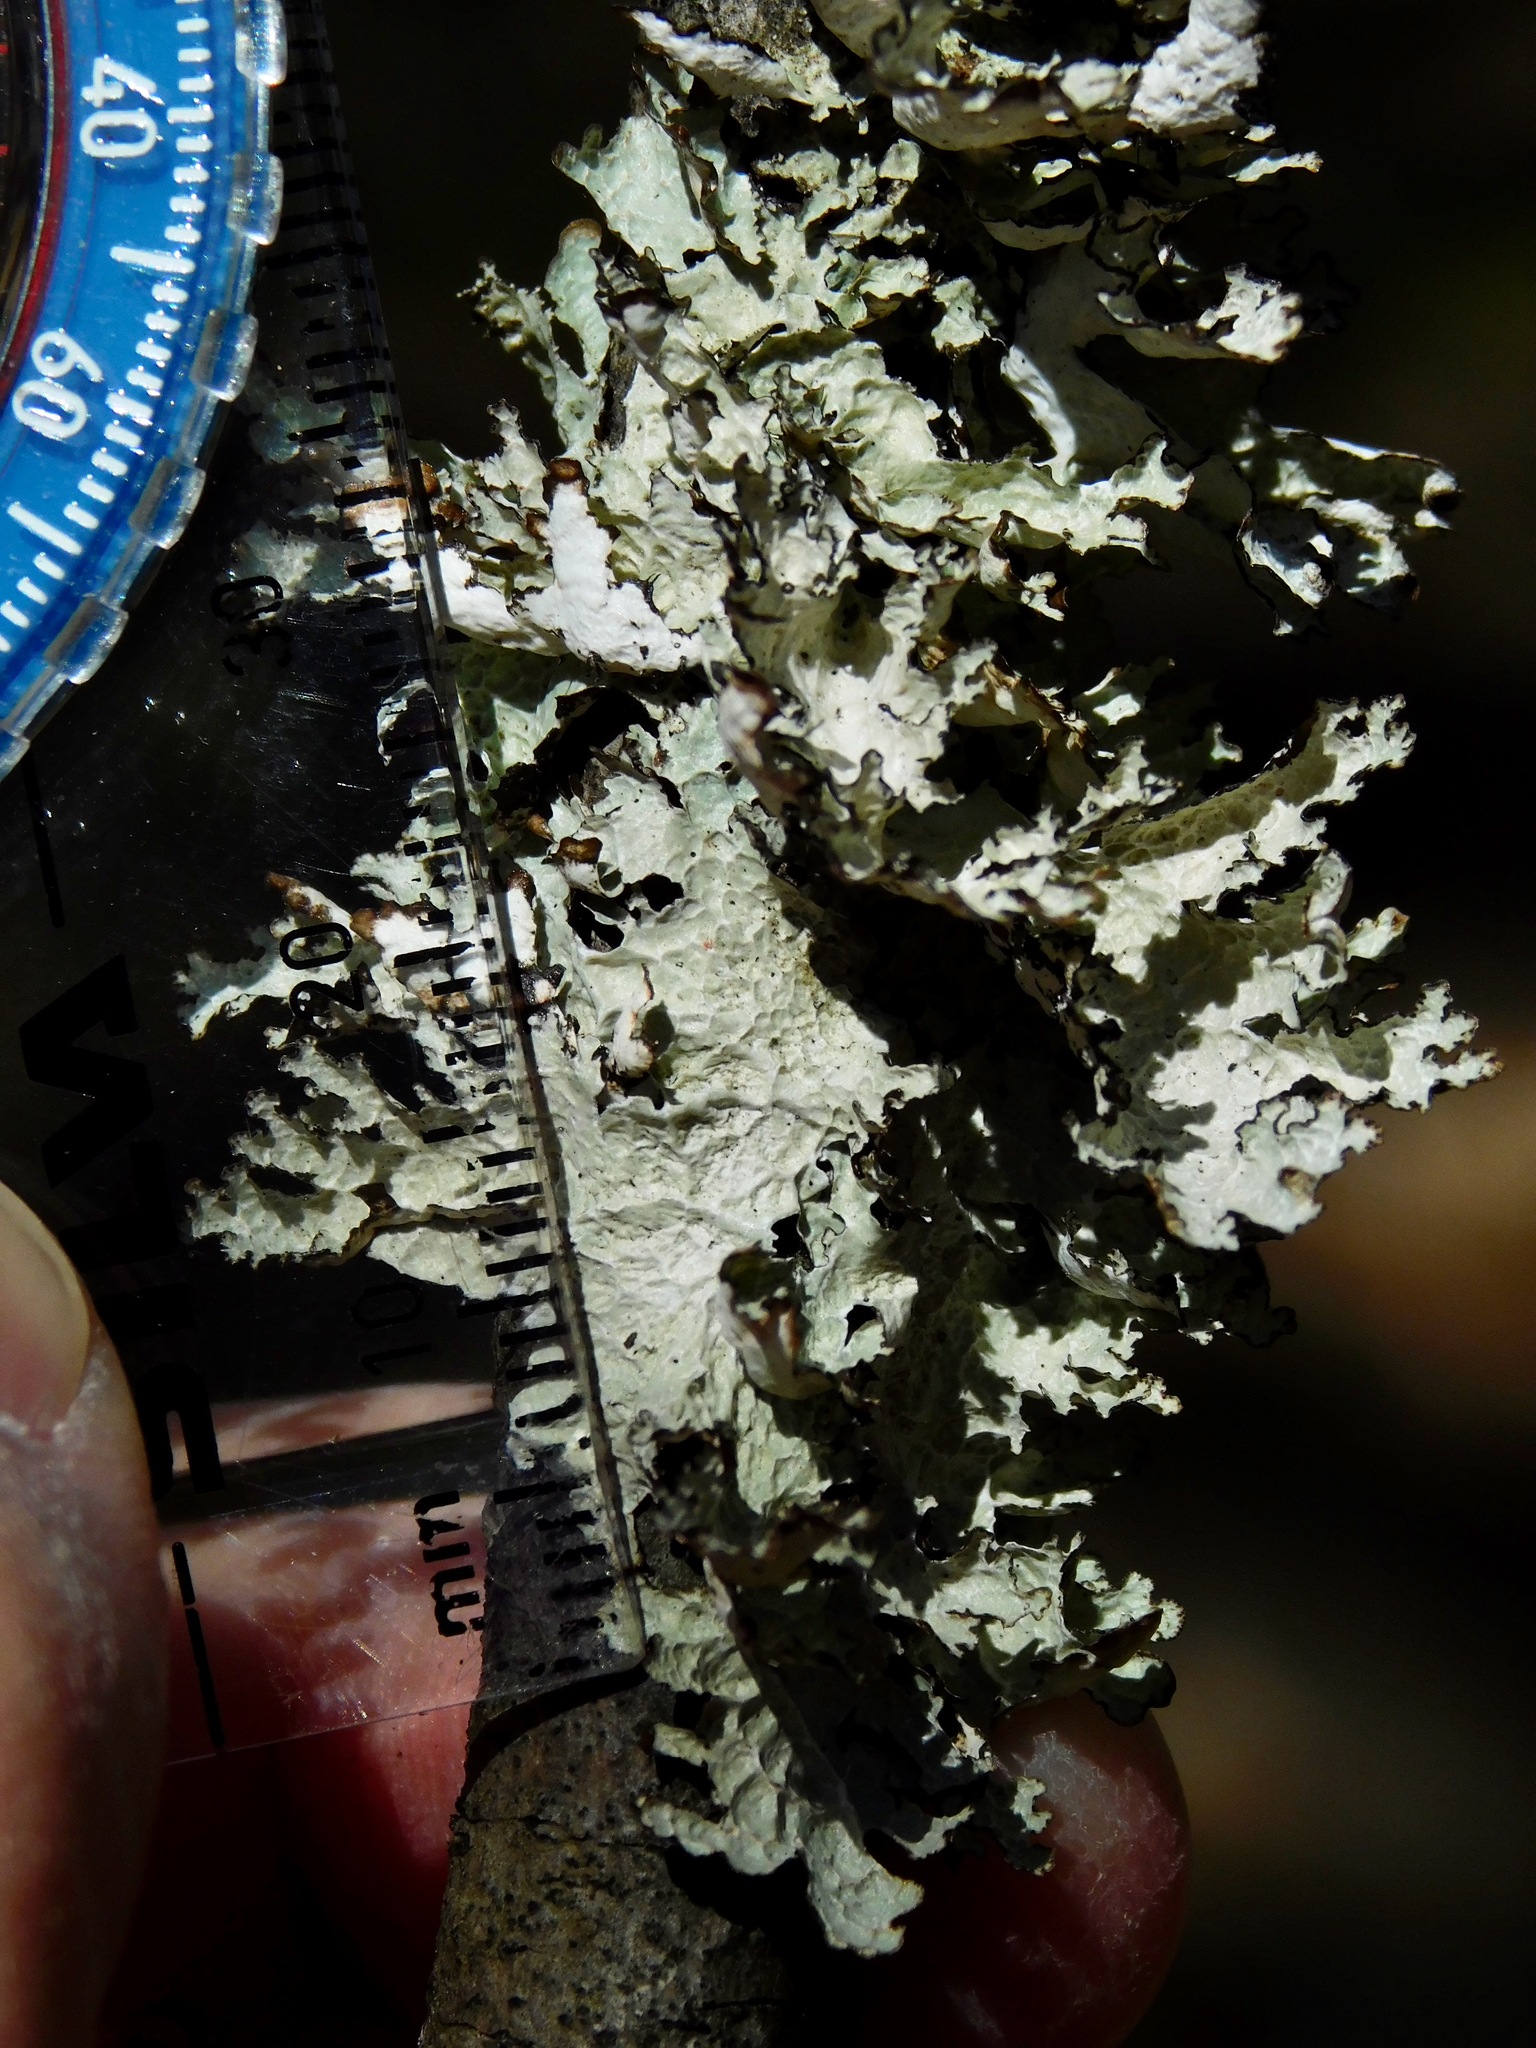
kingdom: Fungi
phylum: Ascomycota
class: Lecanoromycetes
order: Lecanorales
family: Parmeliaceae
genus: Platismatia
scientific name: Platismatia tuckermanii
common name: Crumpled rag lichen
